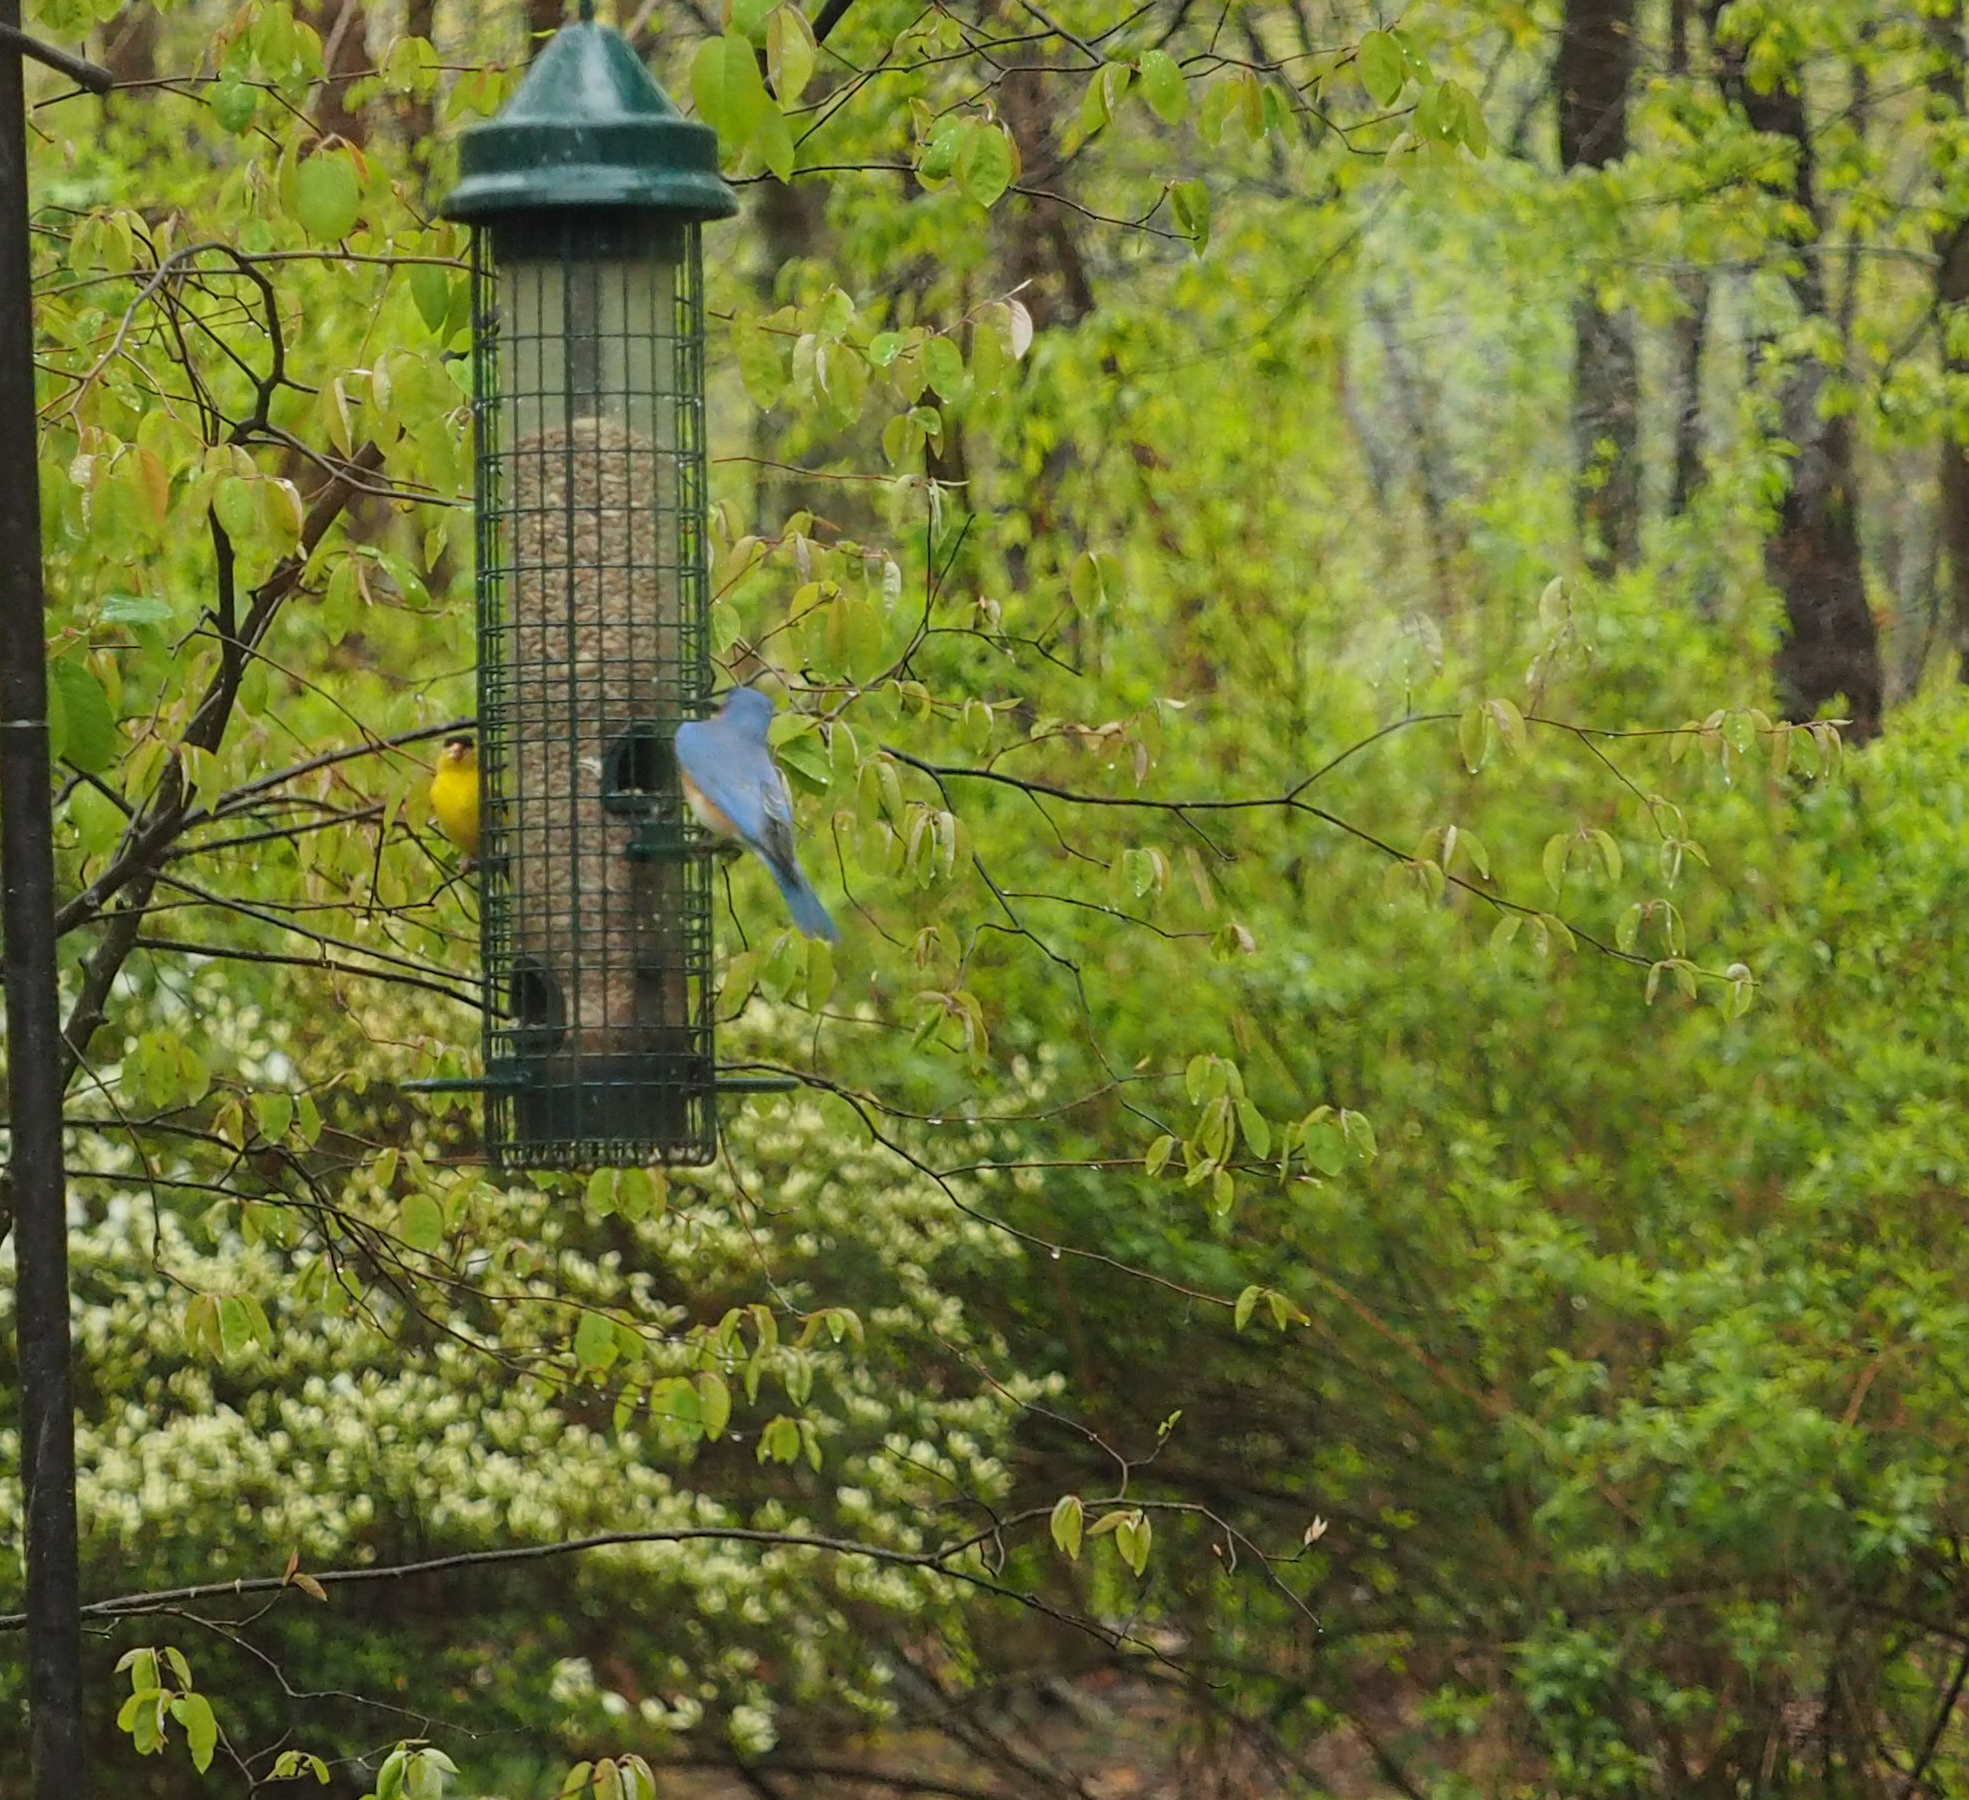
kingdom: Animalia
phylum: Chordata
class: Aves
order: Passeriformes
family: Turdidae
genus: Sialia
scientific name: Sialia sialis
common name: Eastern bluebird
